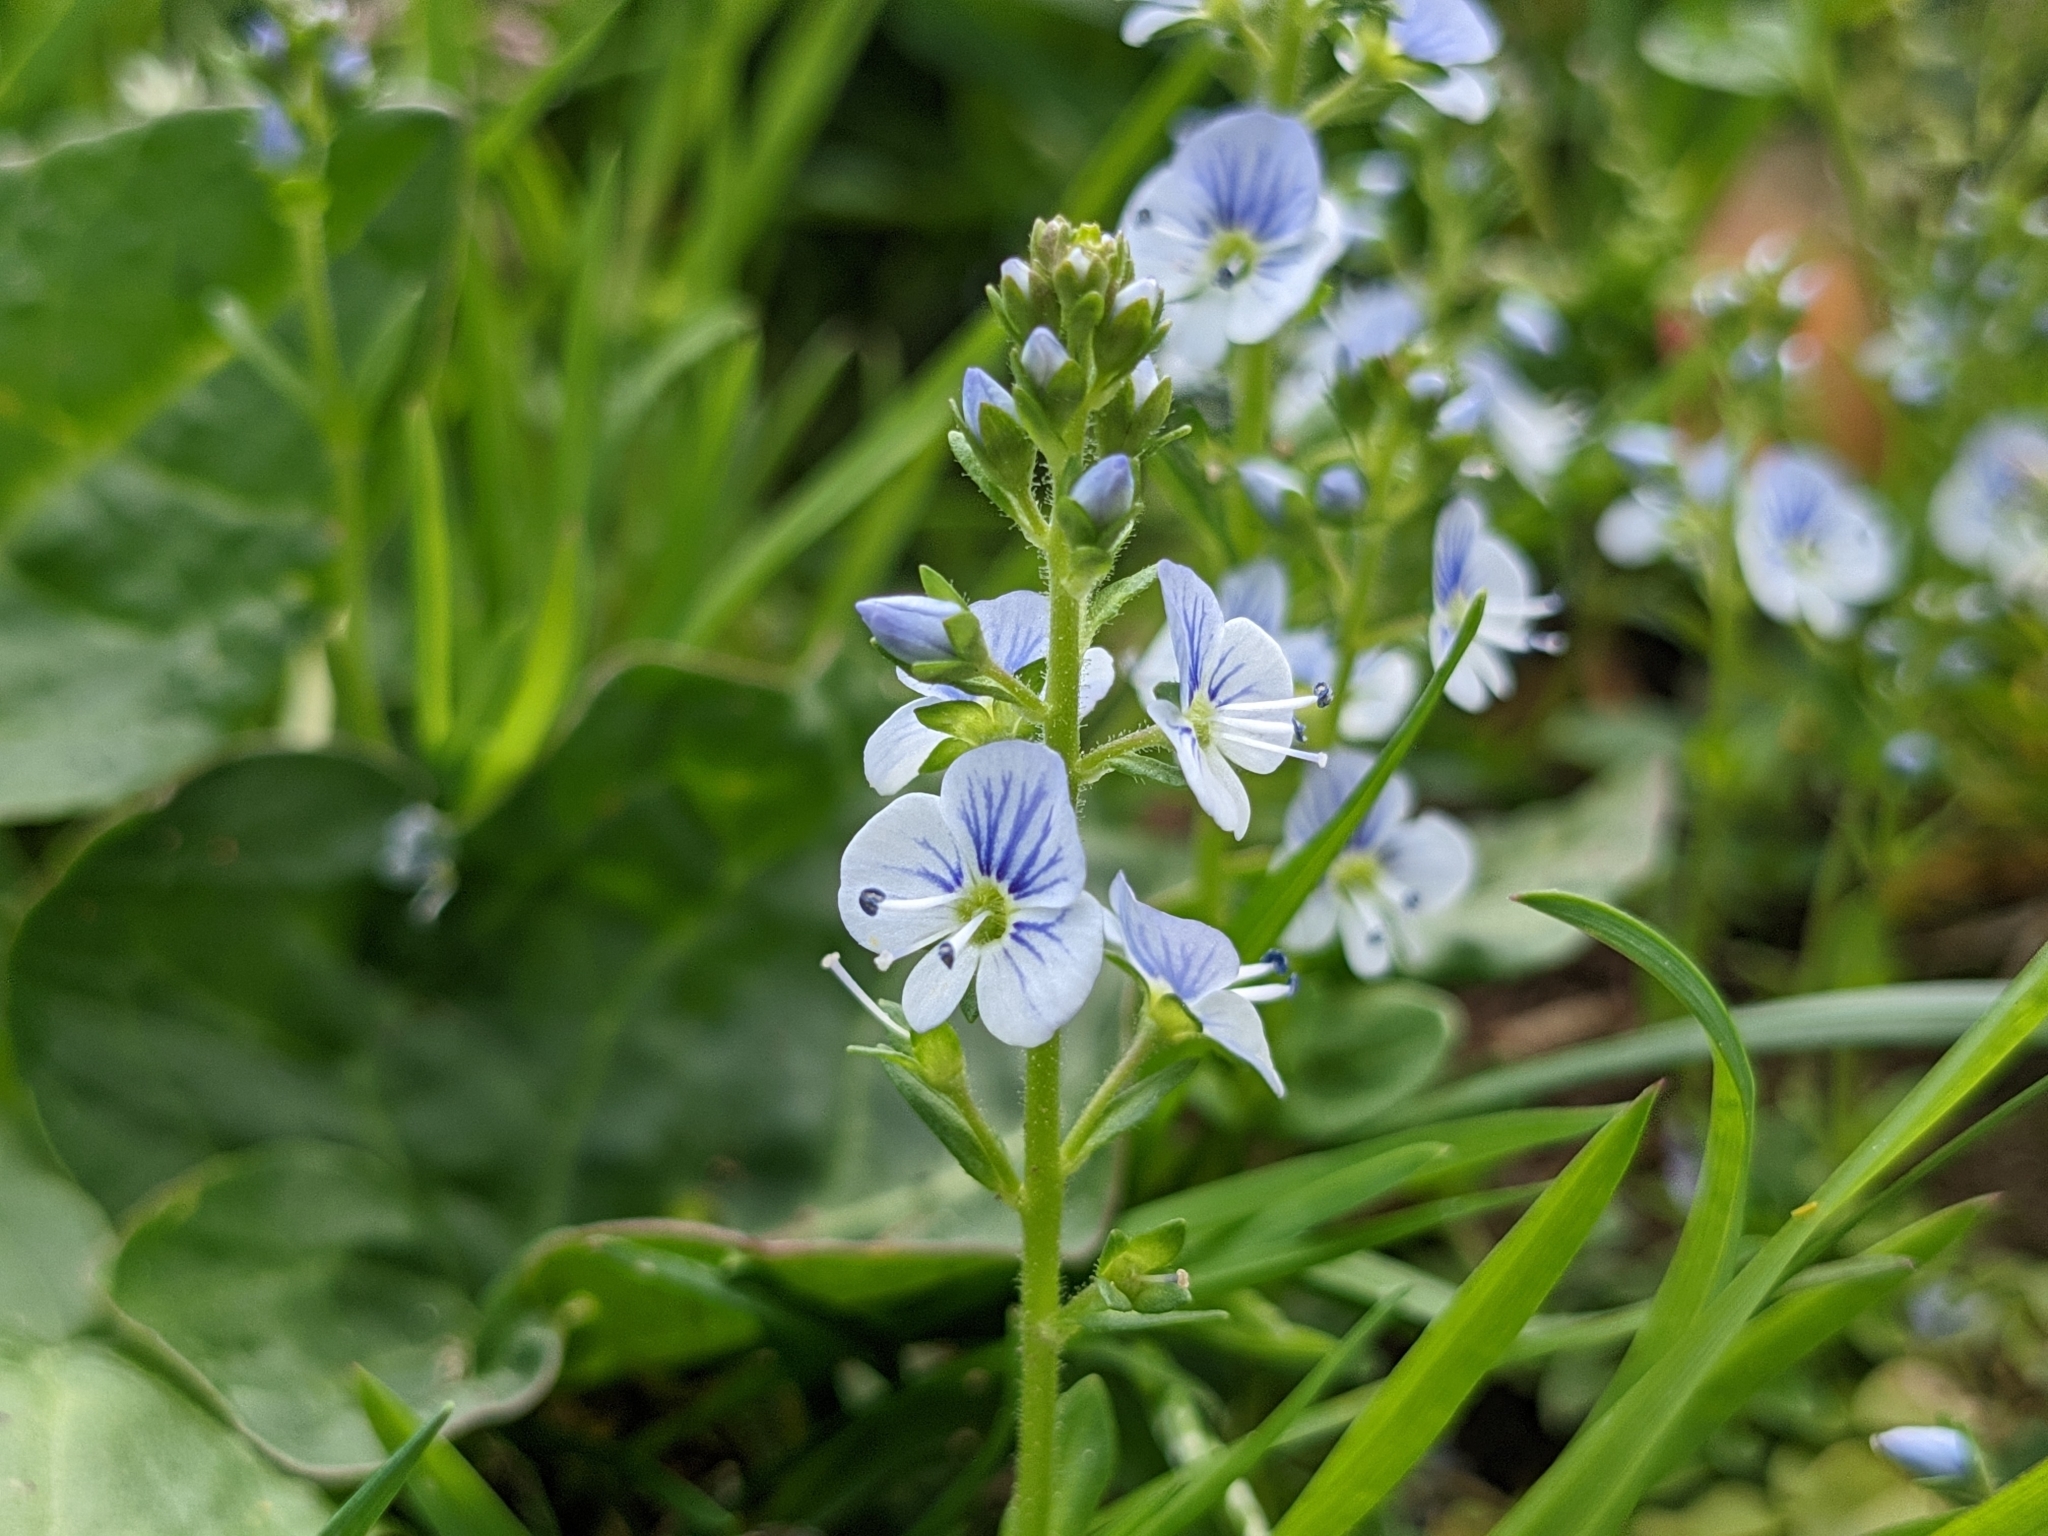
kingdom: Plantae
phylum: Tracheophyta
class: Magnoliopsida
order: Lamiales
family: Plantaginaceae
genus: Veronica
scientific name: Veronica serpyllifolia
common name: Thyme-leaved speedwell
